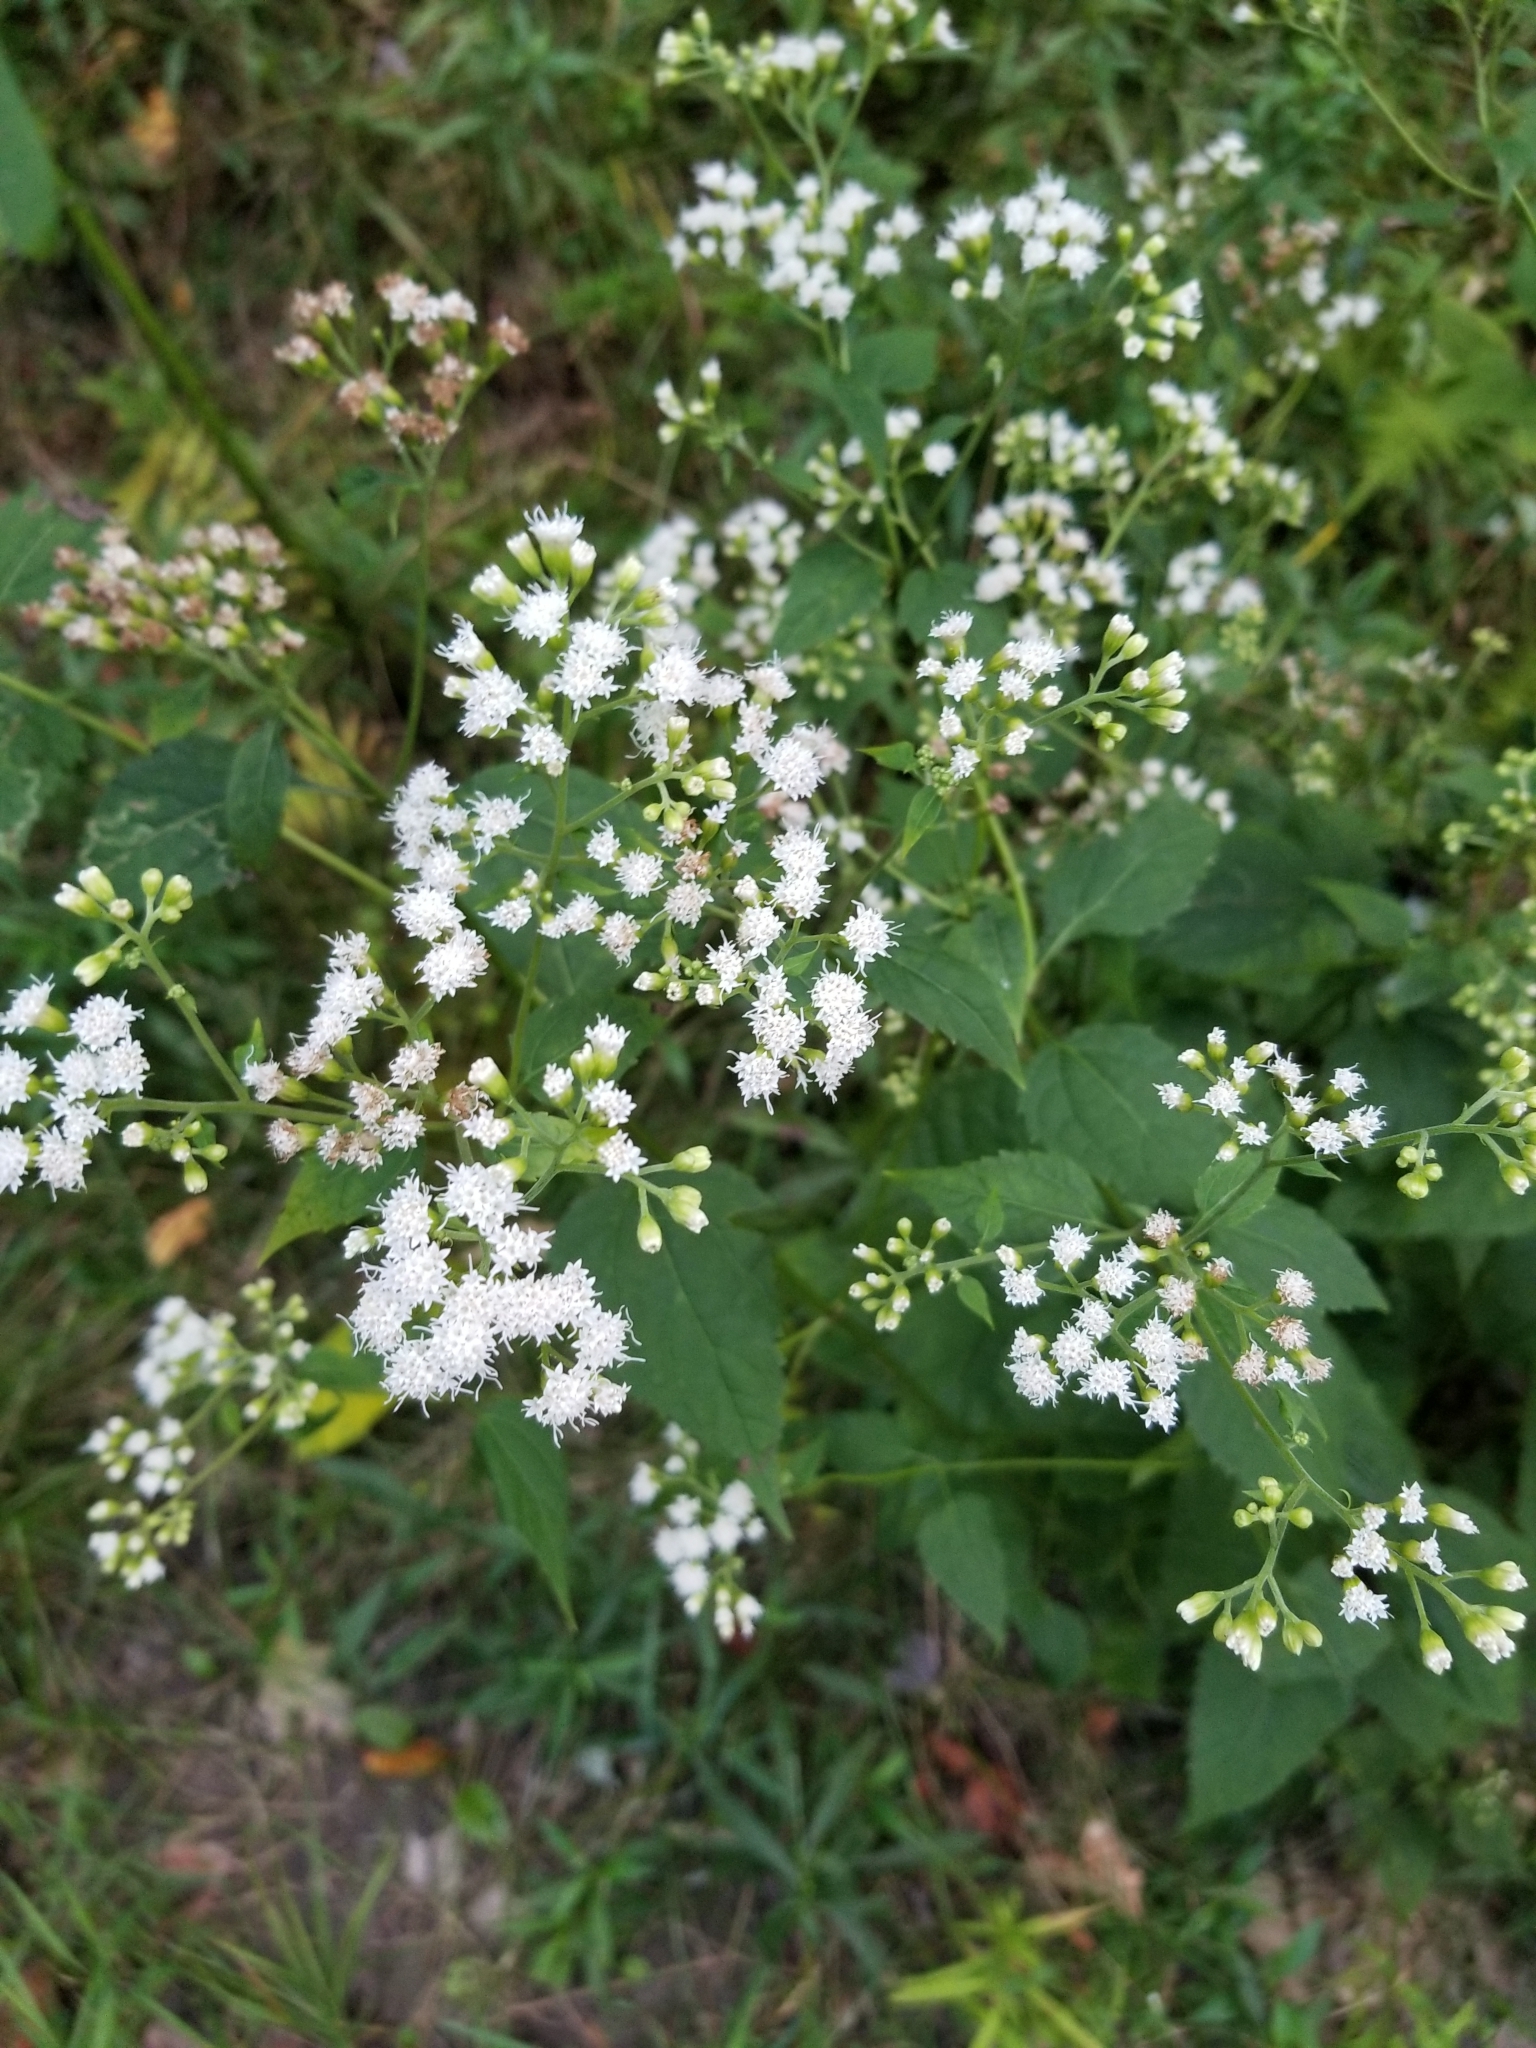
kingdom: Plantae
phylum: Tracheophyta
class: Magnoliopsida
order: Asterales
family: Asteraceae
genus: Ageratina
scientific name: Ageratina altissima
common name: White snakeroot
